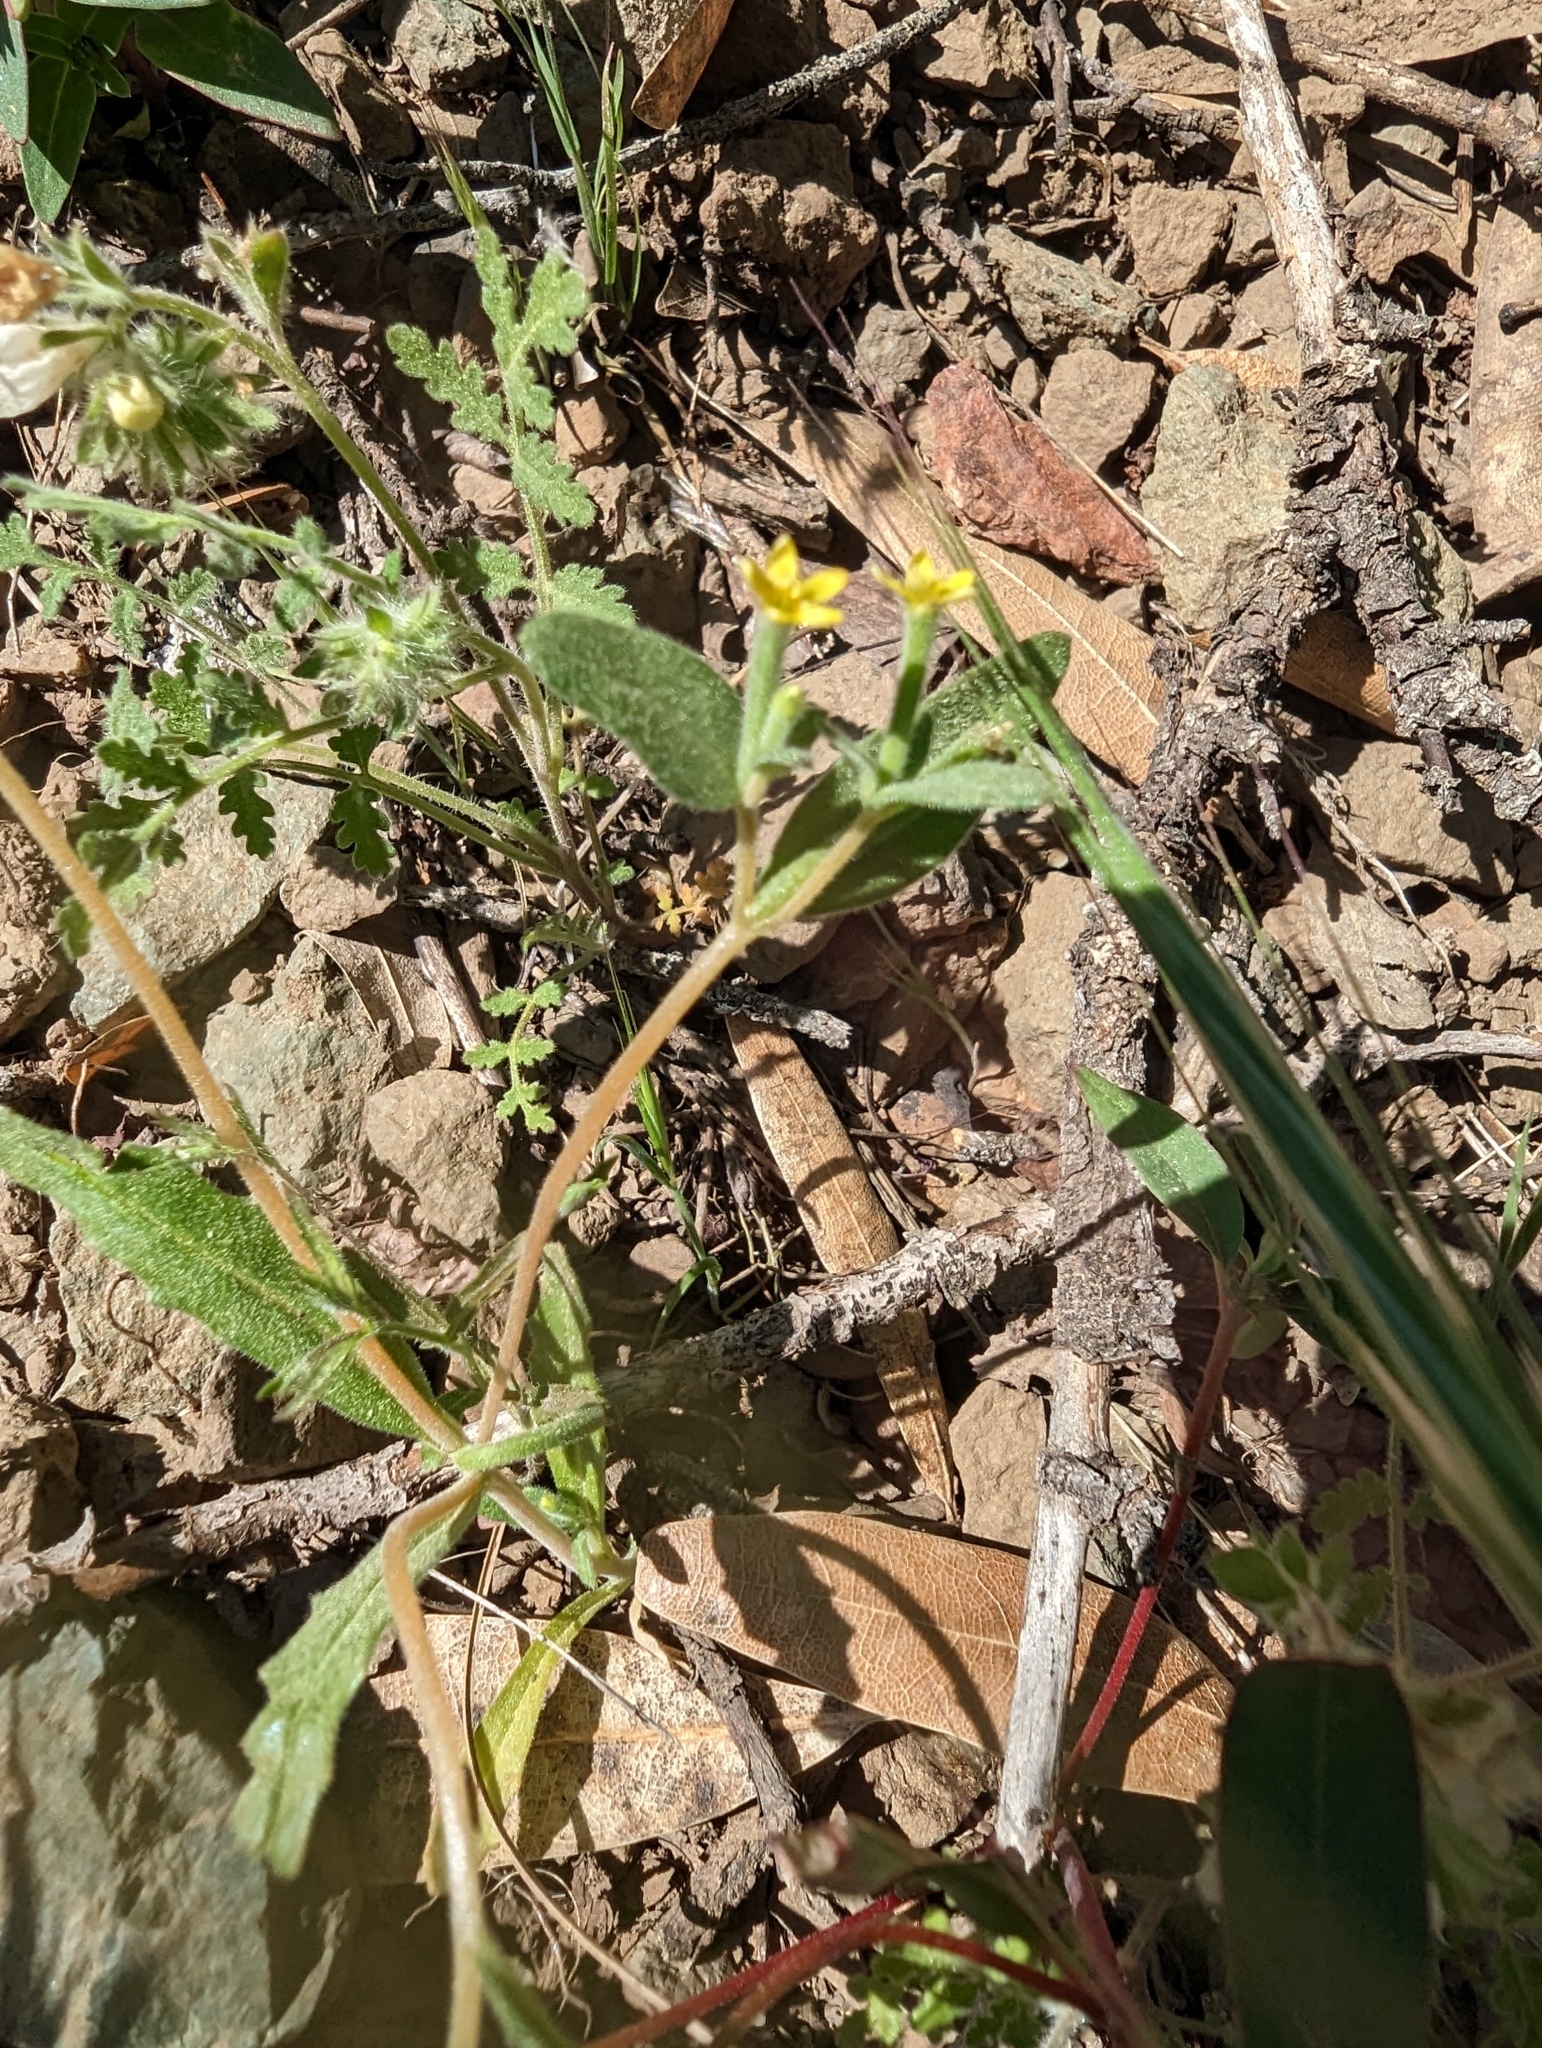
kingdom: Plantae
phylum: Tracheophyta
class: Magnoliopsida
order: Cornales
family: Loasaceae
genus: Mentzelia
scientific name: Mentzelia dispersa
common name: Nada stickleaf
